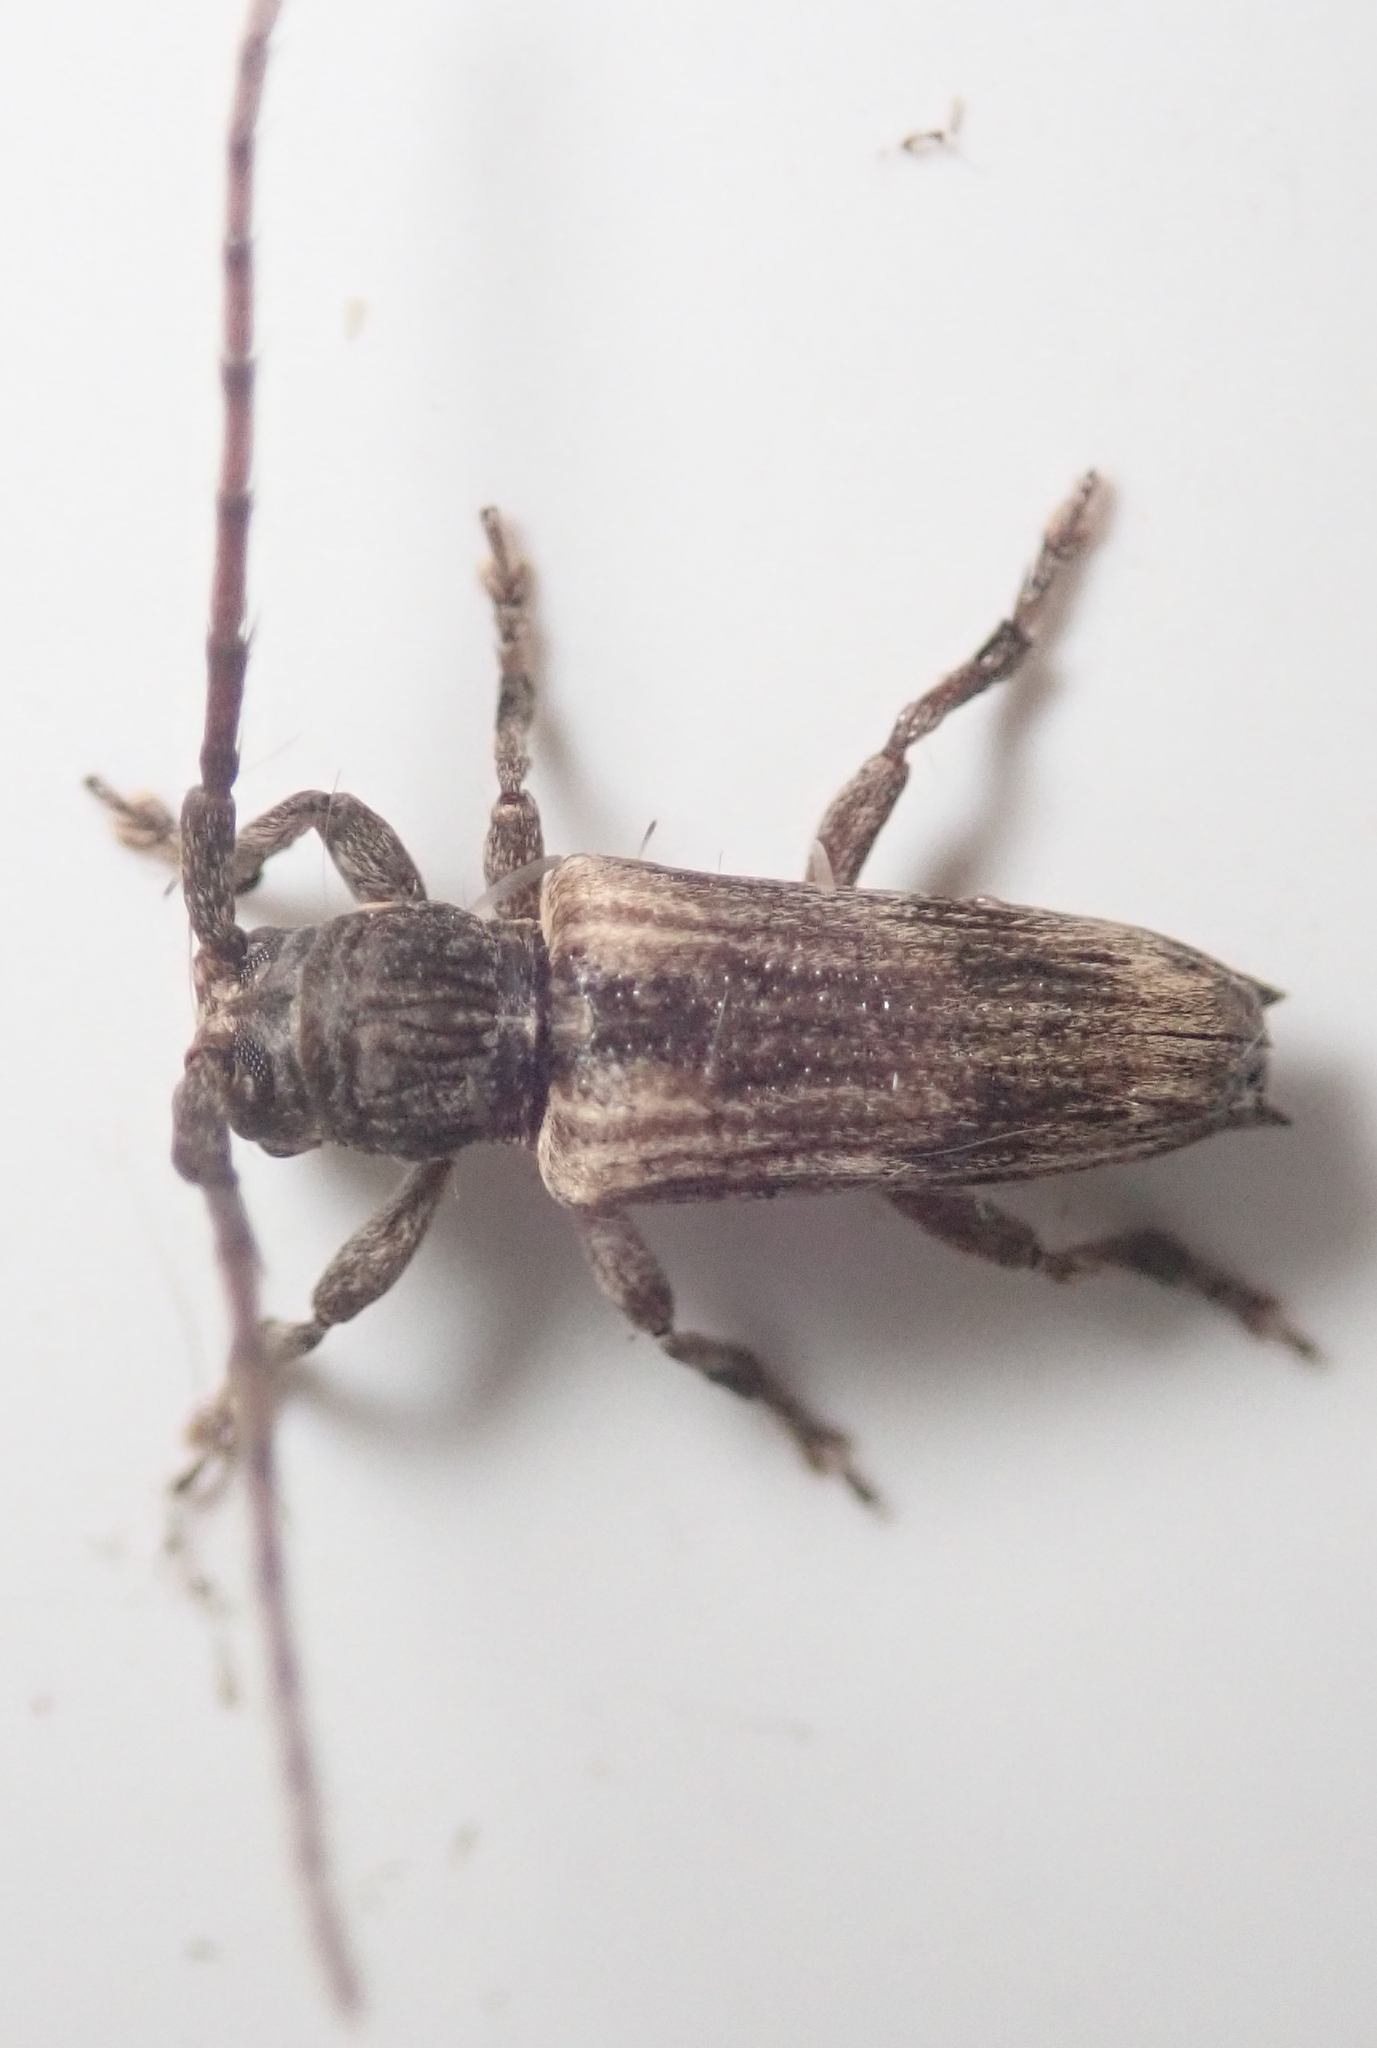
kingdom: Animalia
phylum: Arthropoda
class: Insecta
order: Coleoptera
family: Cerambycidae
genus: Stathmodera
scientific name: Stathmodera aethiopica
